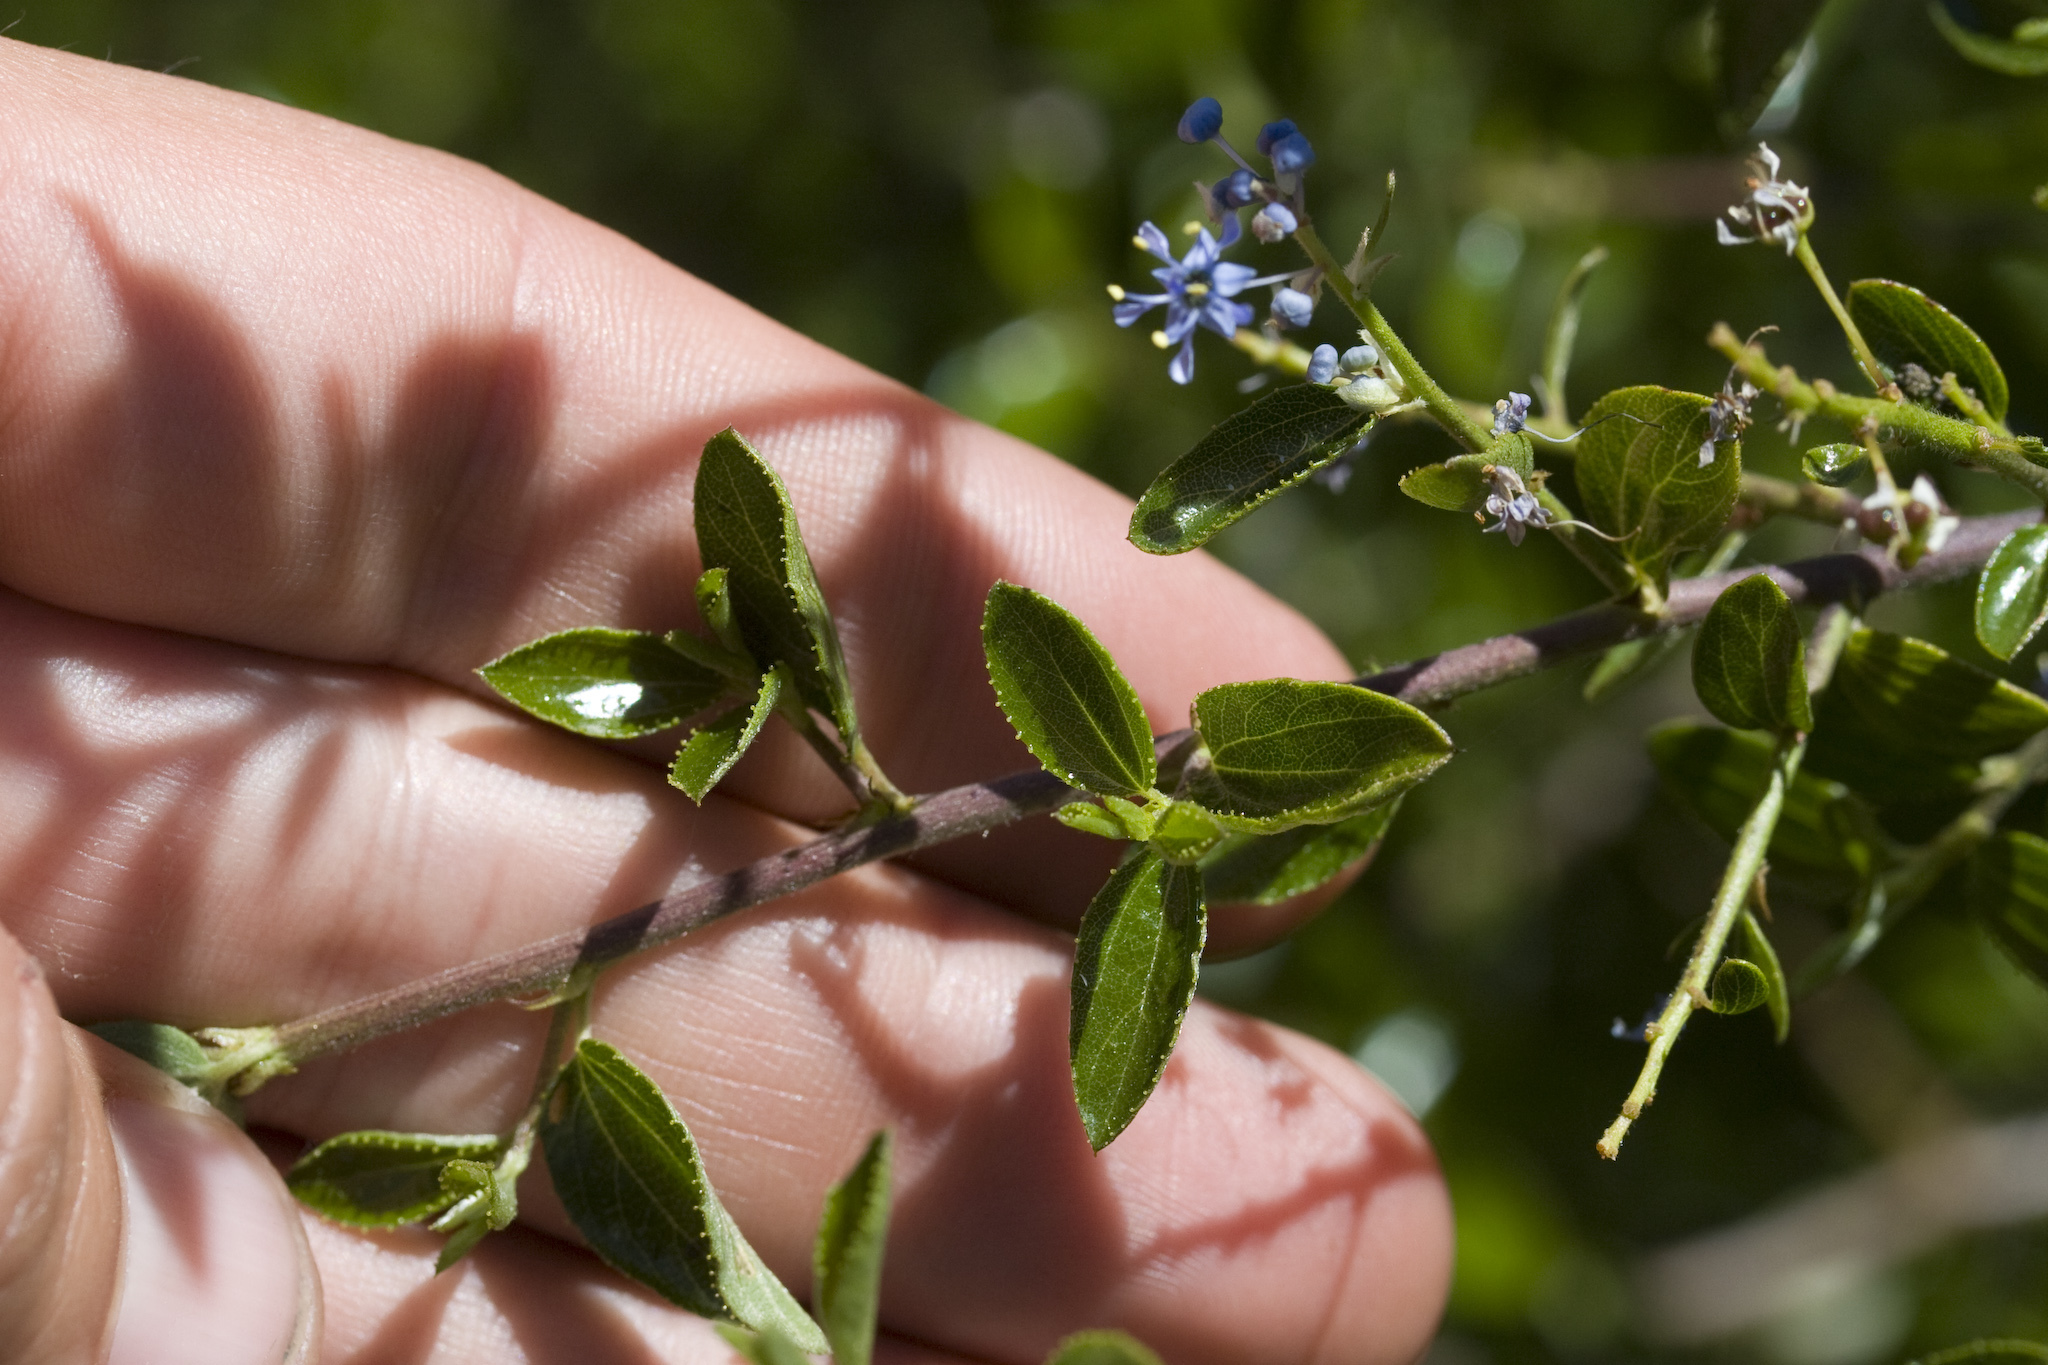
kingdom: Plantae
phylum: Tracheophyta
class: Magnoliopsida
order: Rosales
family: Rhamnaceae
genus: Ceanothus
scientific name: Ceanothus oliganthus
